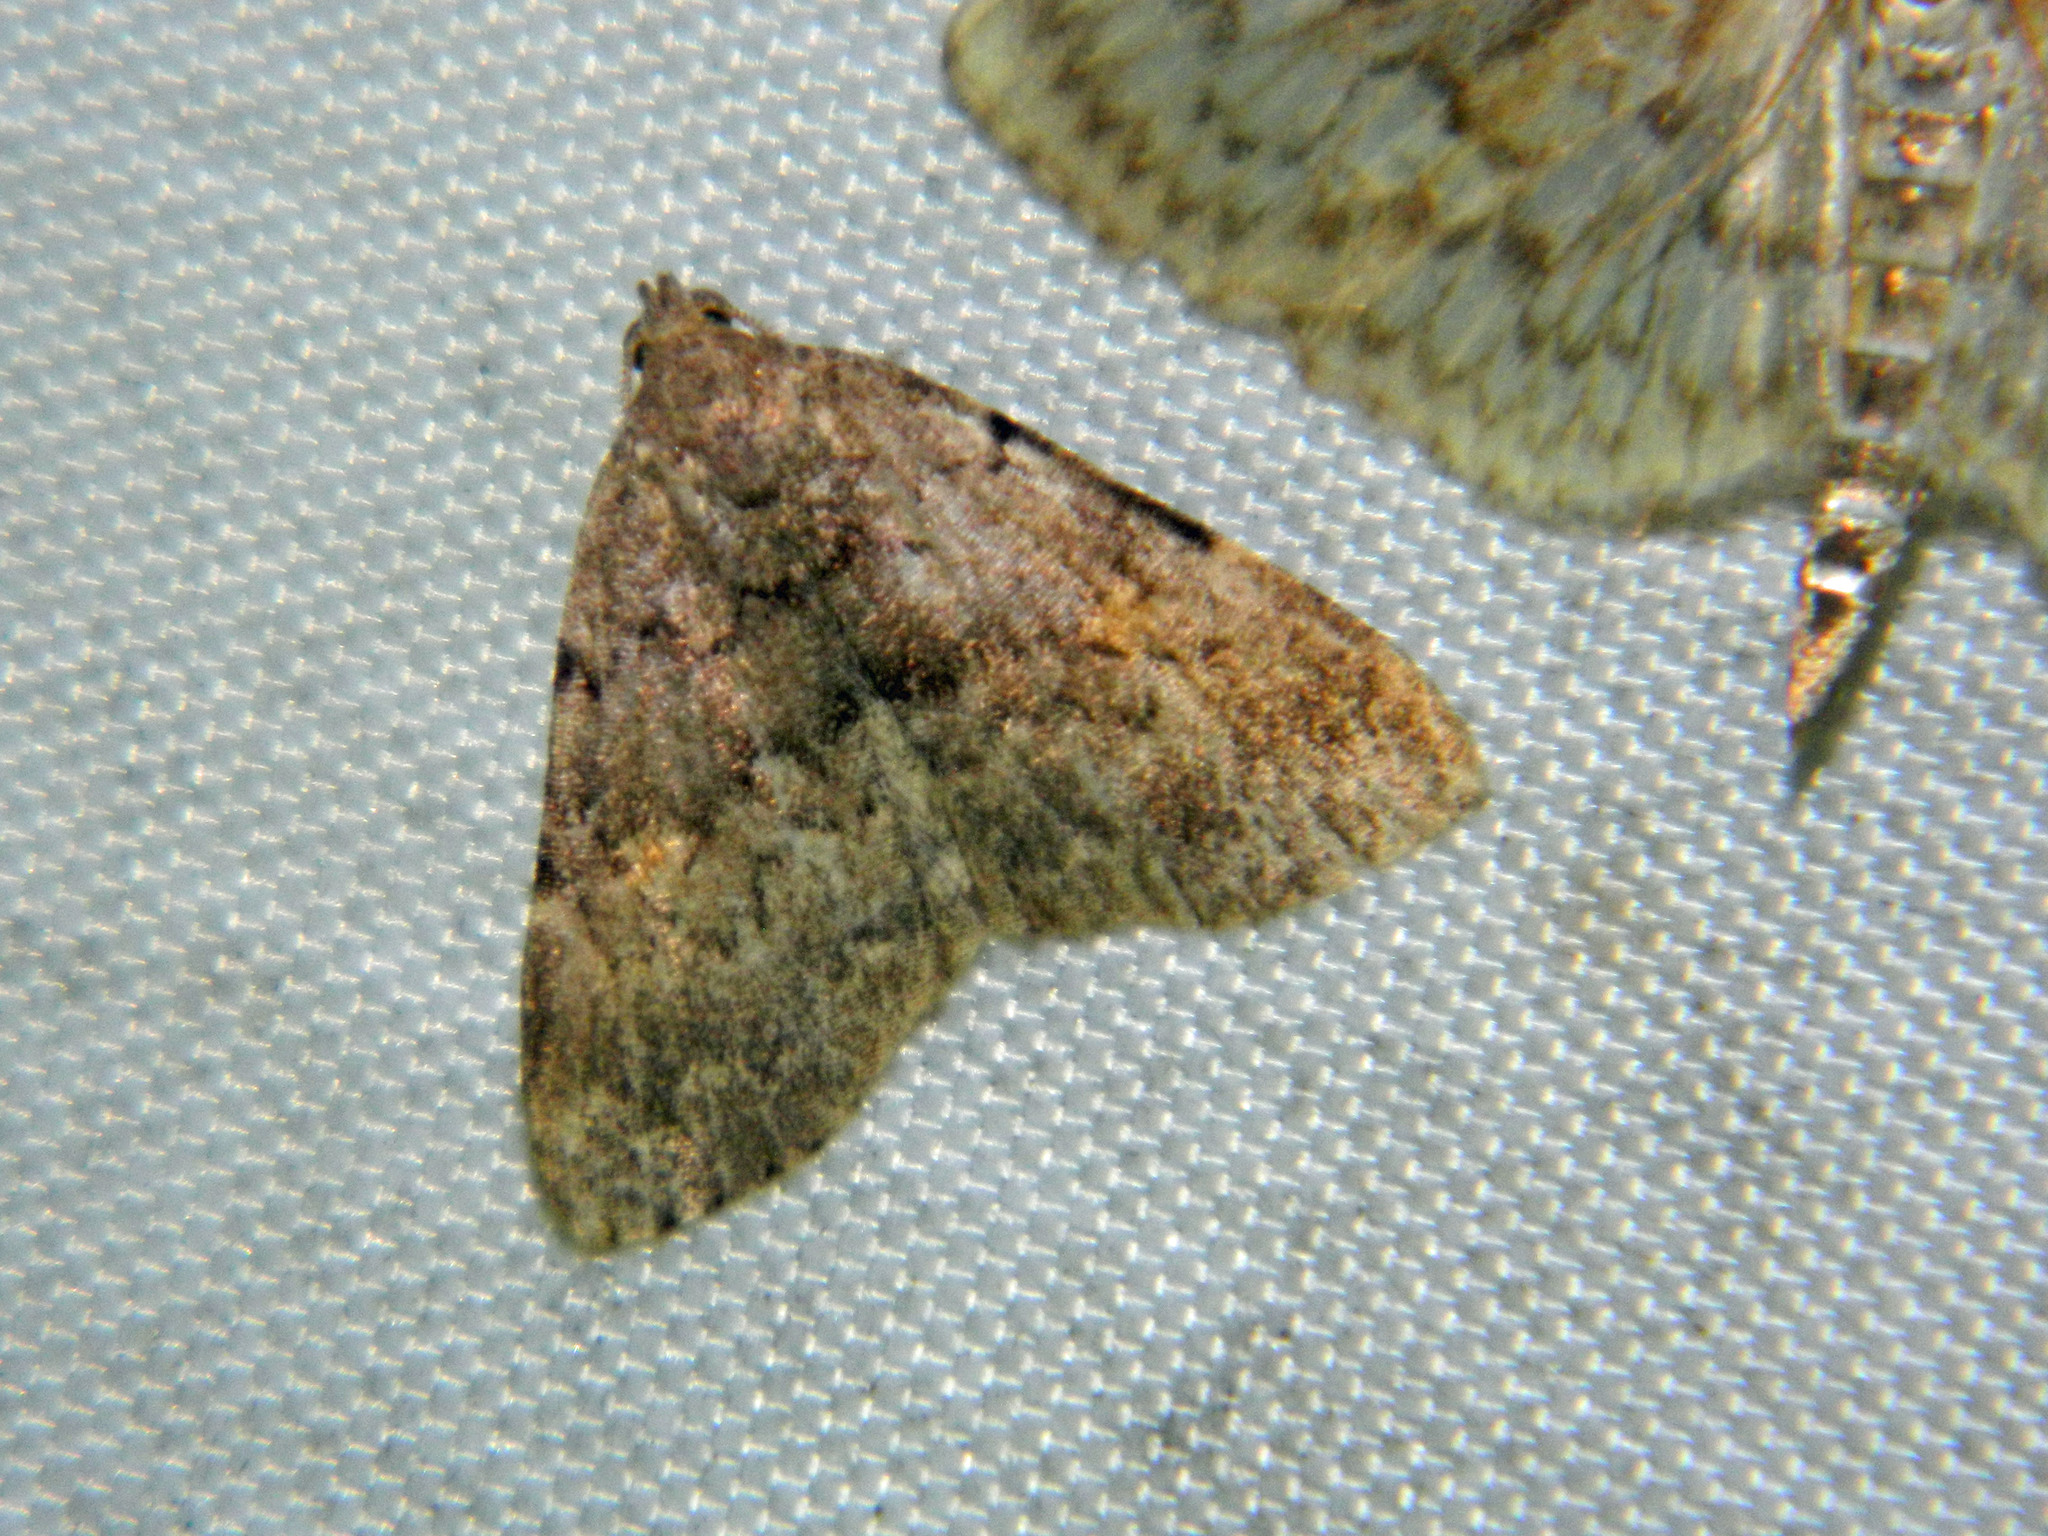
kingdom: Animalia
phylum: Arthropoda
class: Insecta
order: Lepidoptera
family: Erebidae
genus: Idia
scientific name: Idia aemula
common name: Common idia moth
